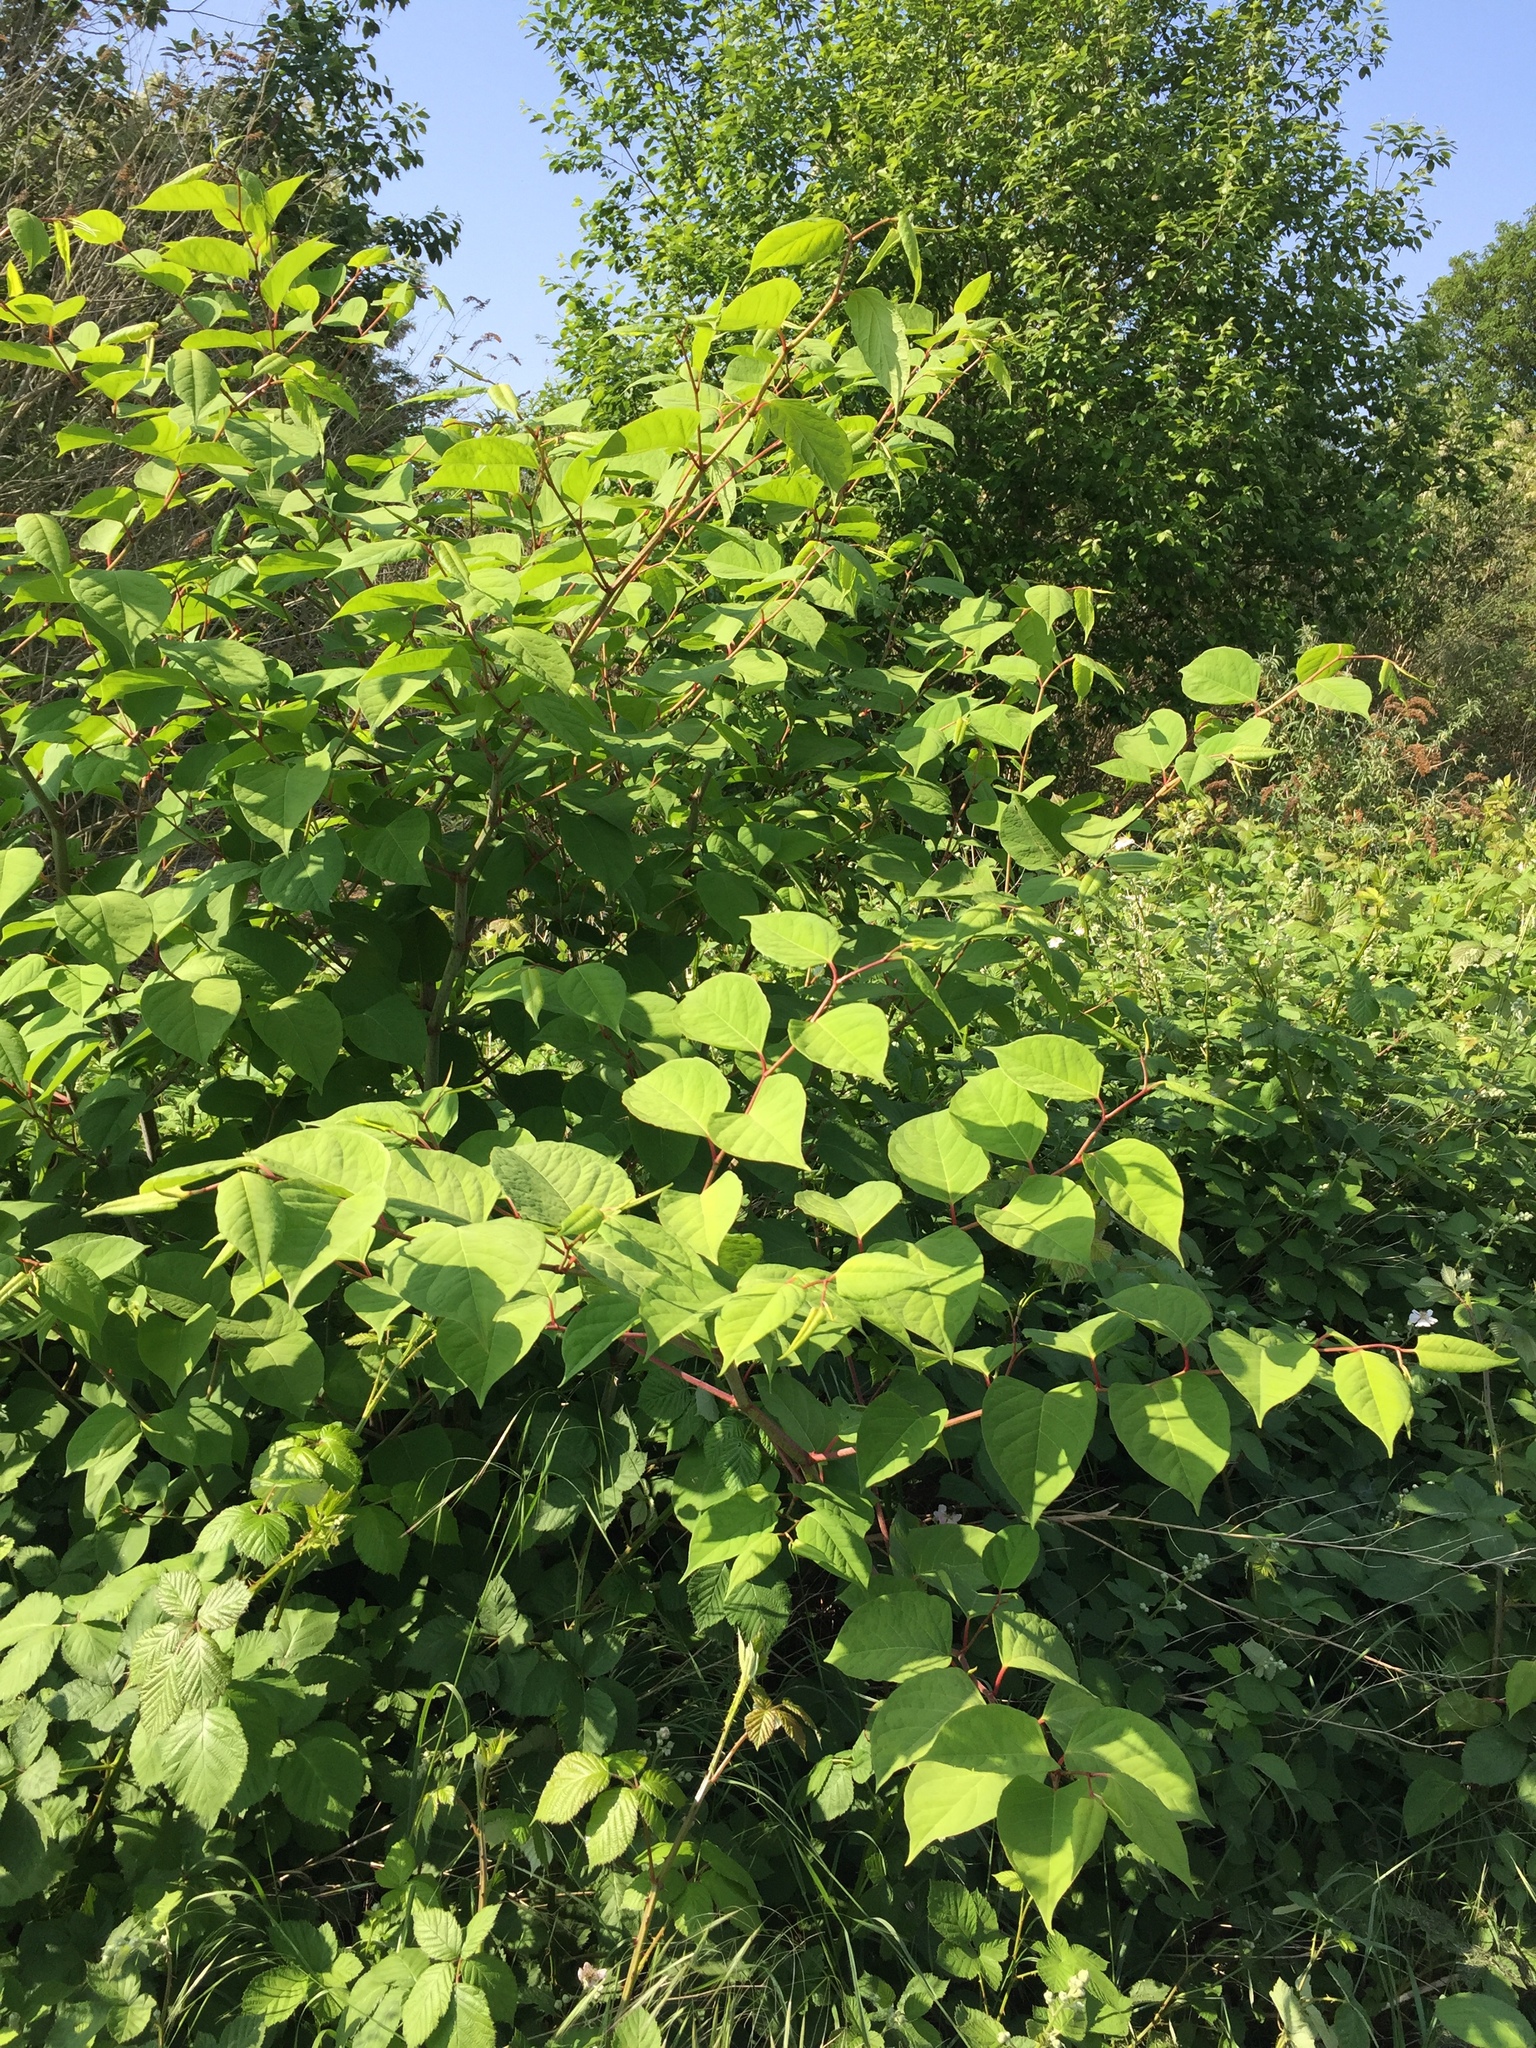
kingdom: Plantae
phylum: Tracheophyta
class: Magnoliopsida
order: Caryophyllales
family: Polygonaceae
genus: Reynoutria
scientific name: Reynoutria japonica
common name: Japanese knotweed
